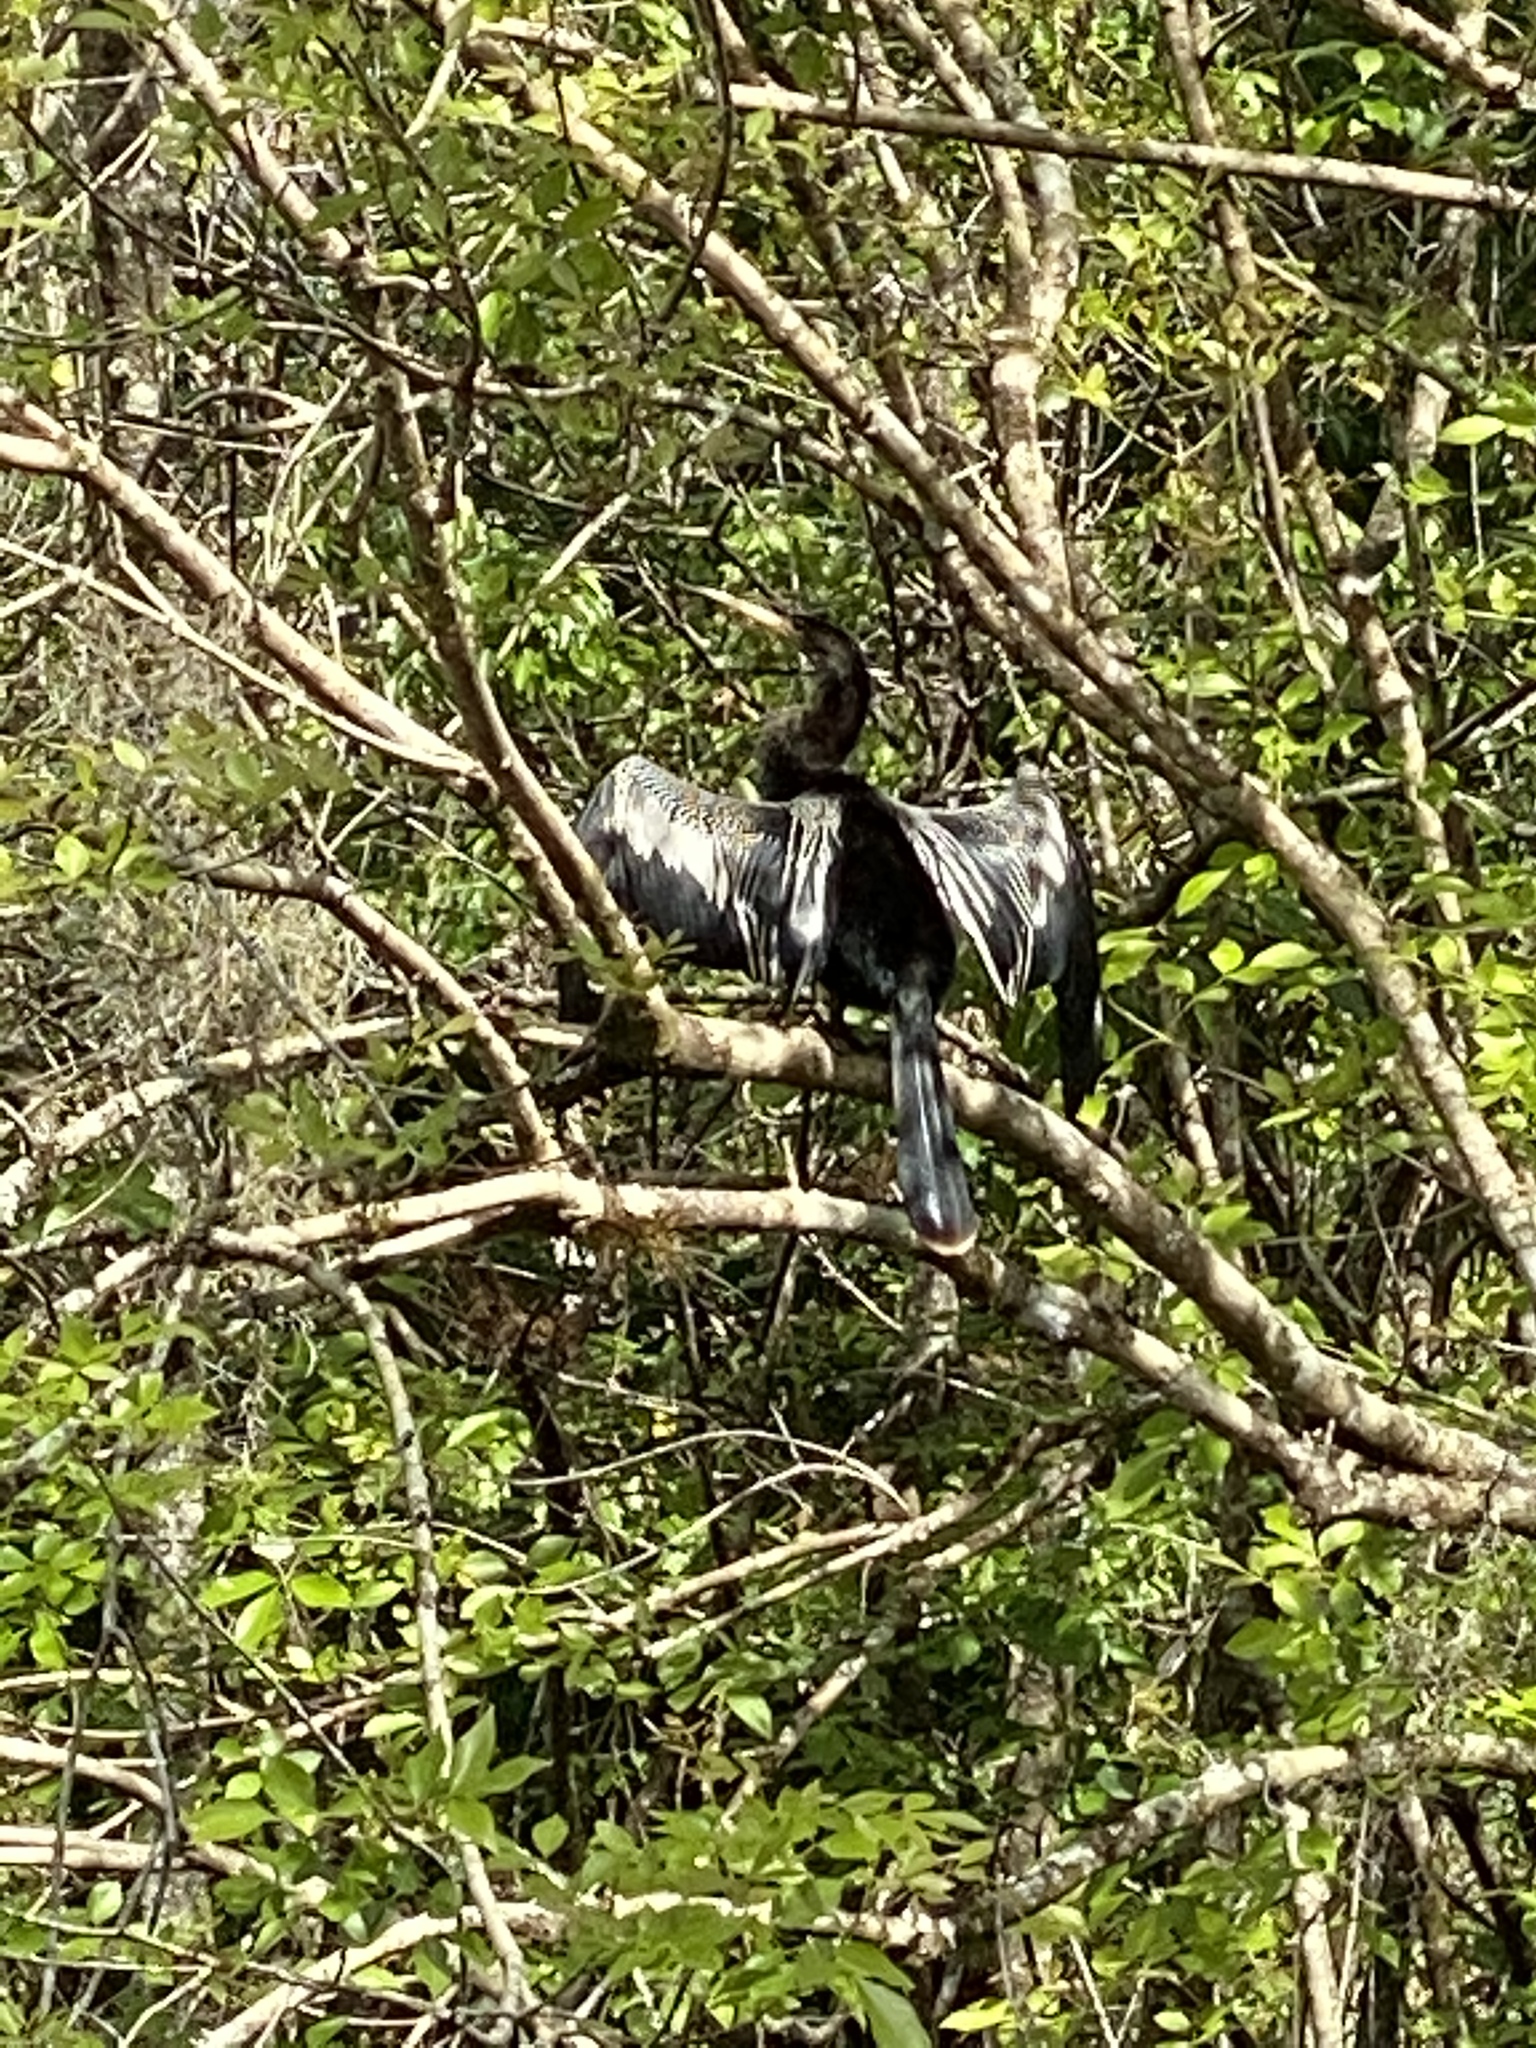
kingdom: Animalia
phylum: Chordata
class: Aves
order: Suliformes
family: Anhingidae
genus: Anhinga
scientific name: Anhinga anhinga
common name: Anhinga
